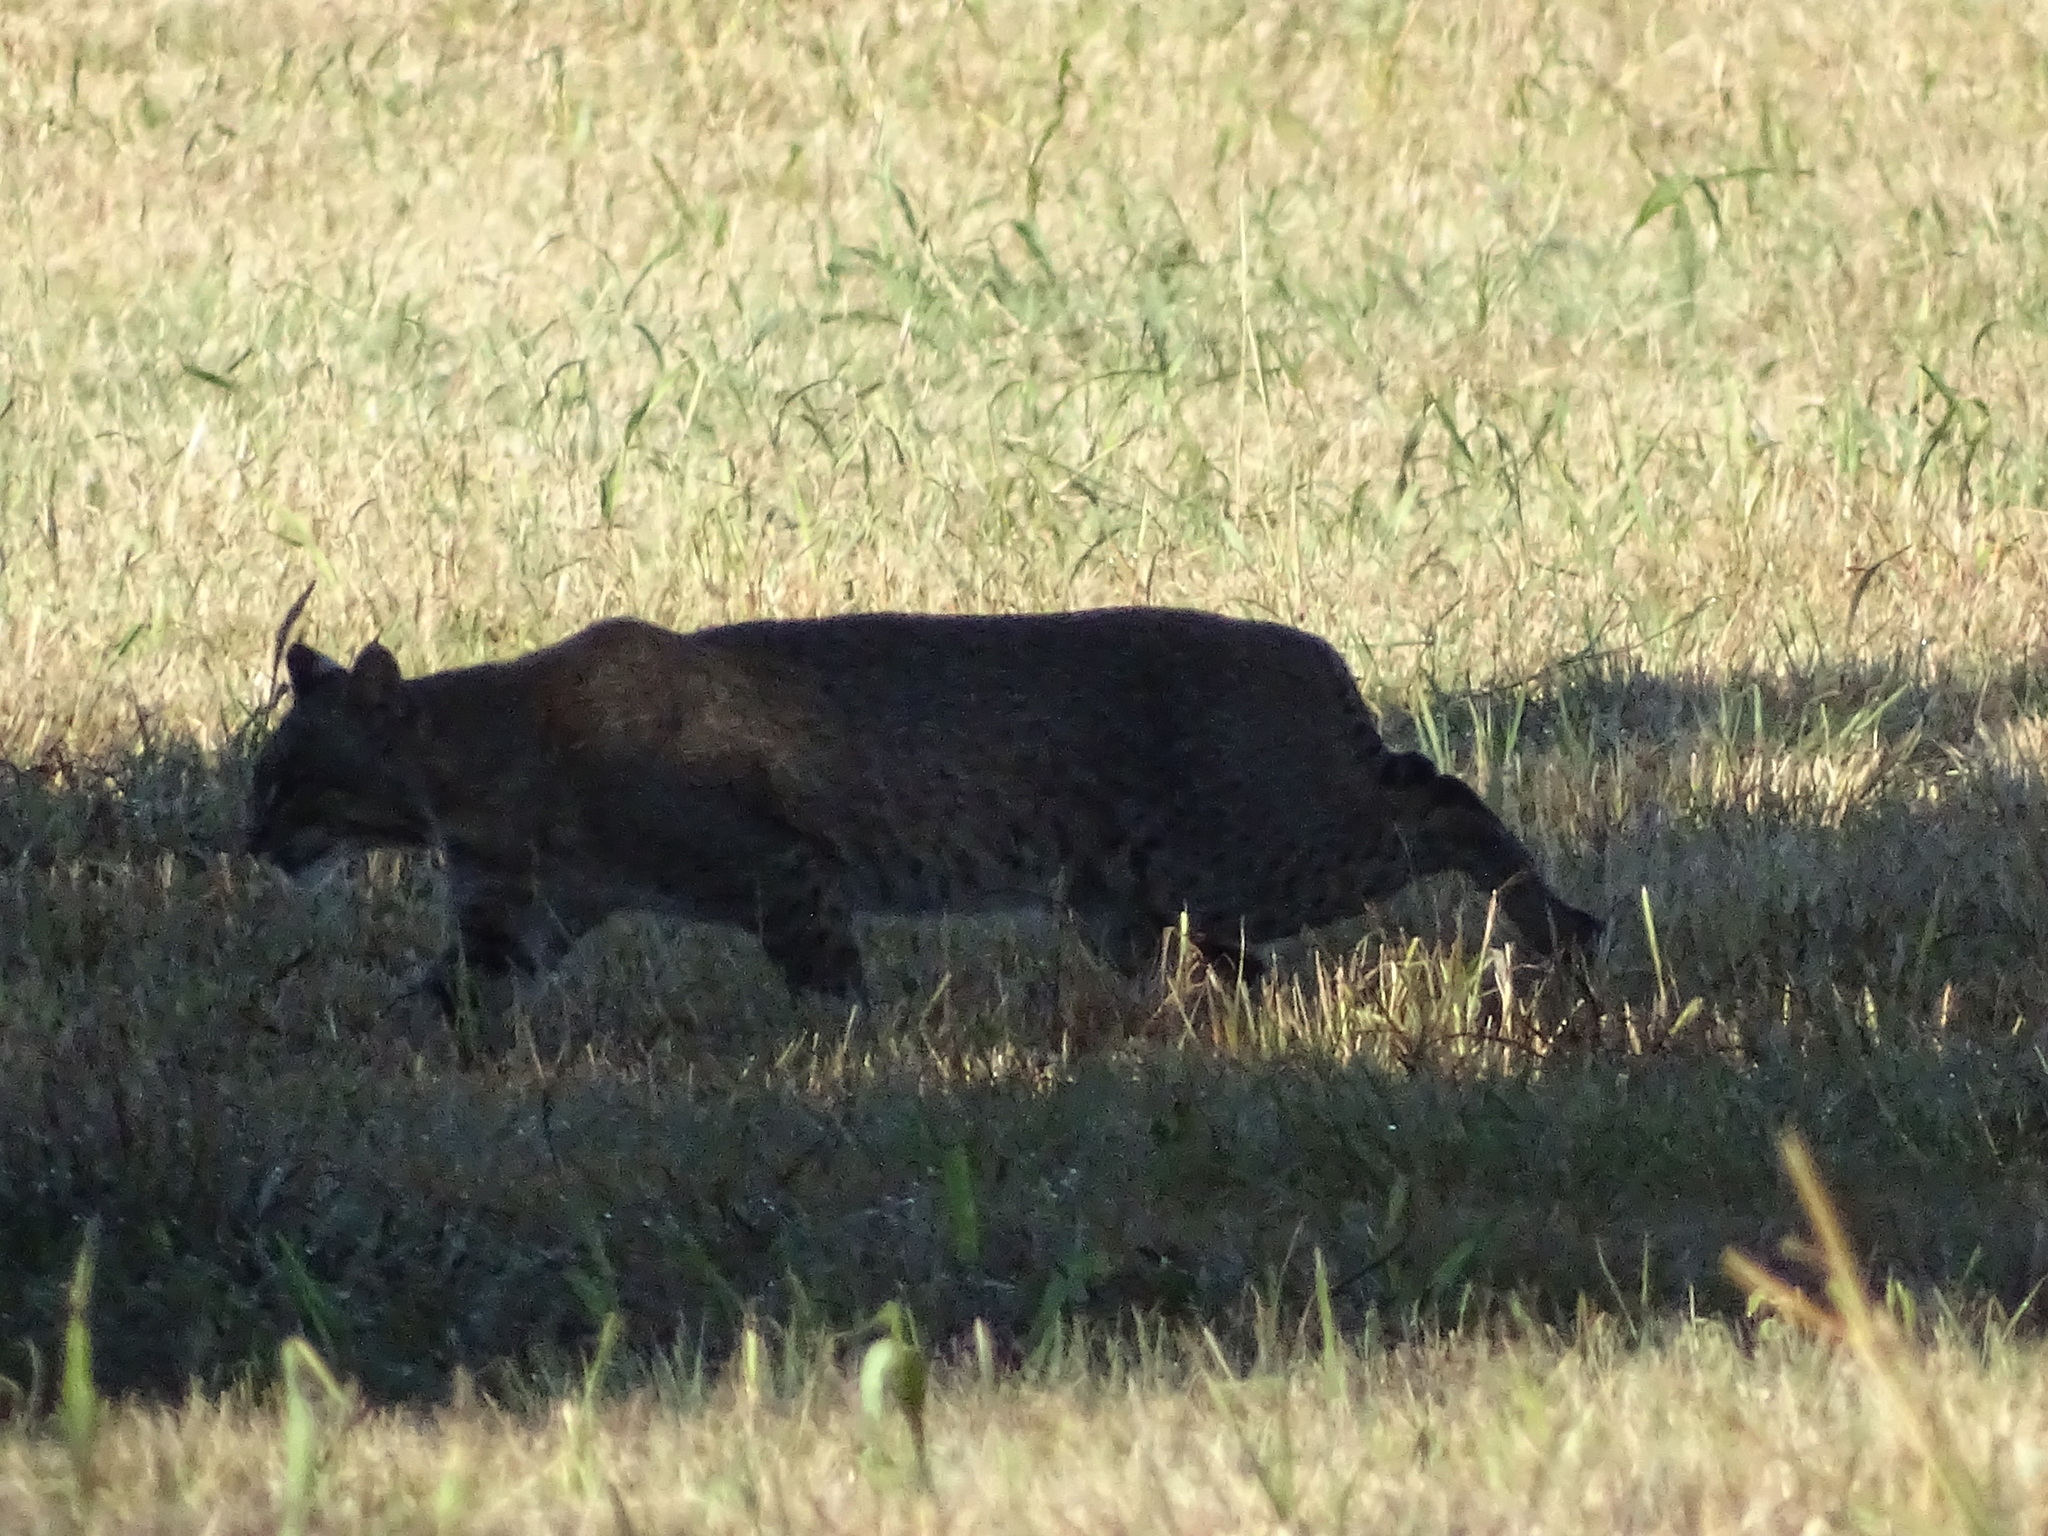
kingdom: Animalia
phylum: Chordata
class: Mammalia
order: Carnivora
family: Felidae
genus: Lynx
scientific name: Lynx rufus
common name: Bobcat
